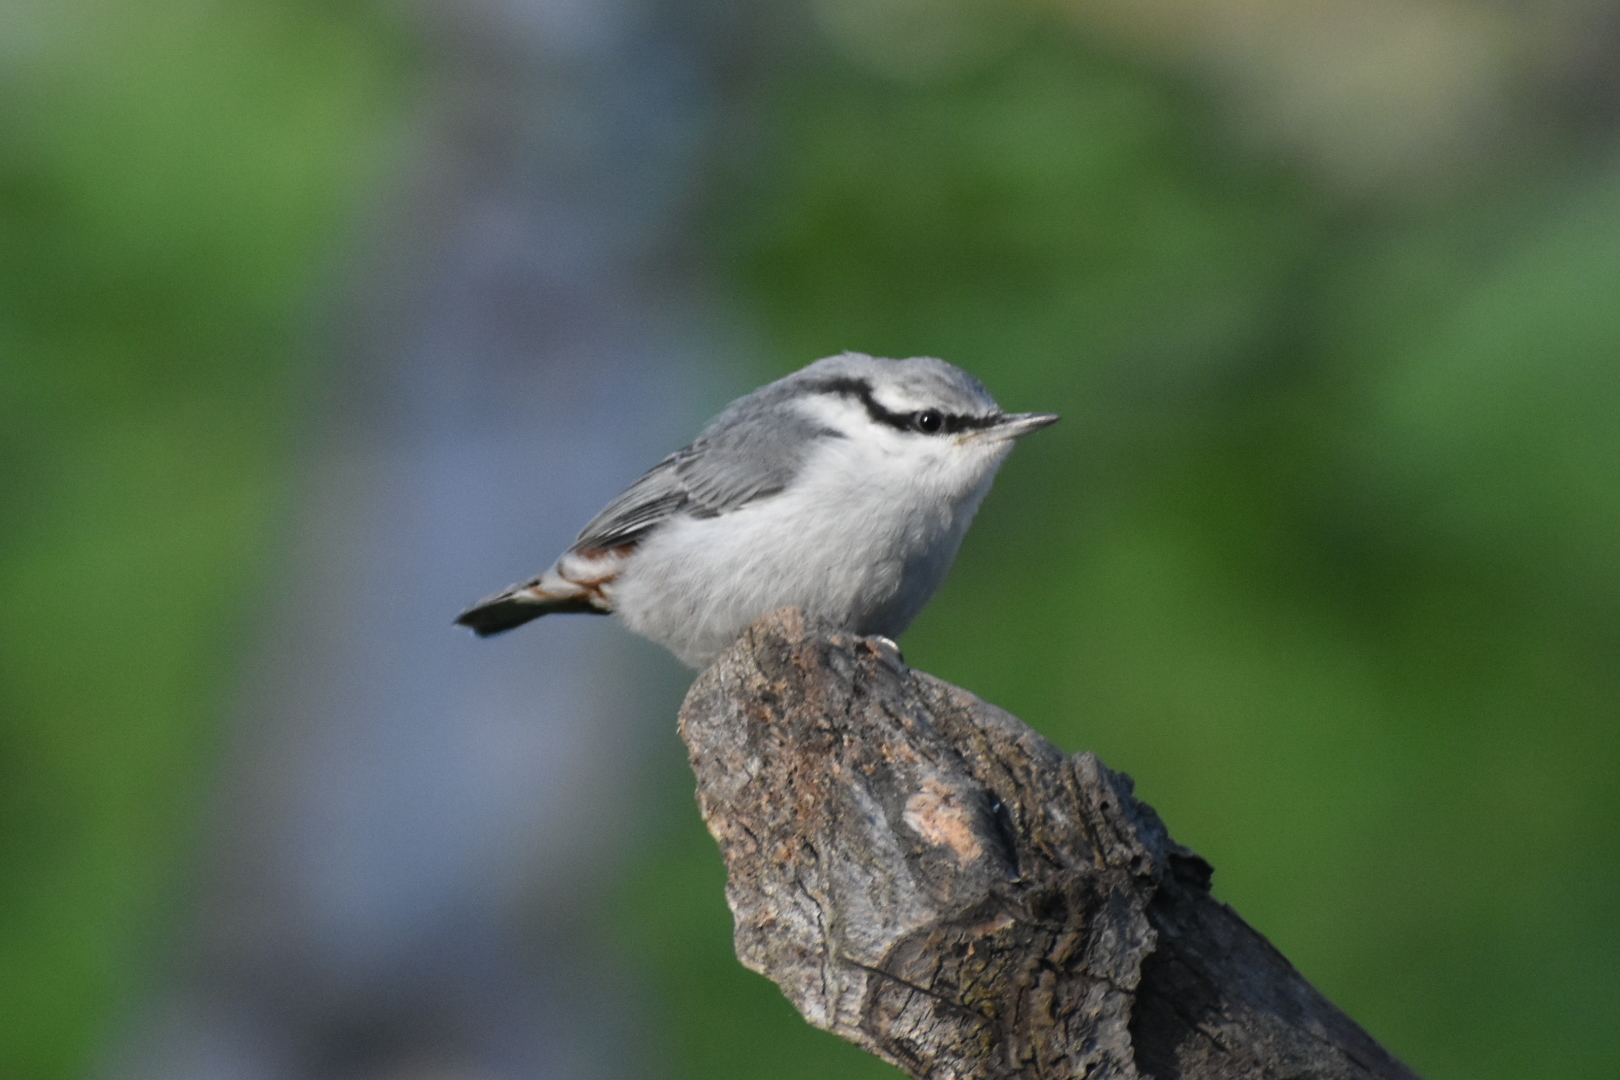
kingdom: Animalia
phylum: Chordata
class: Aves
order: Passeriformes
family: Sittidae
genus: Sitta
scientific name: Sitta europaea
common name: Eurasian nuthatch
